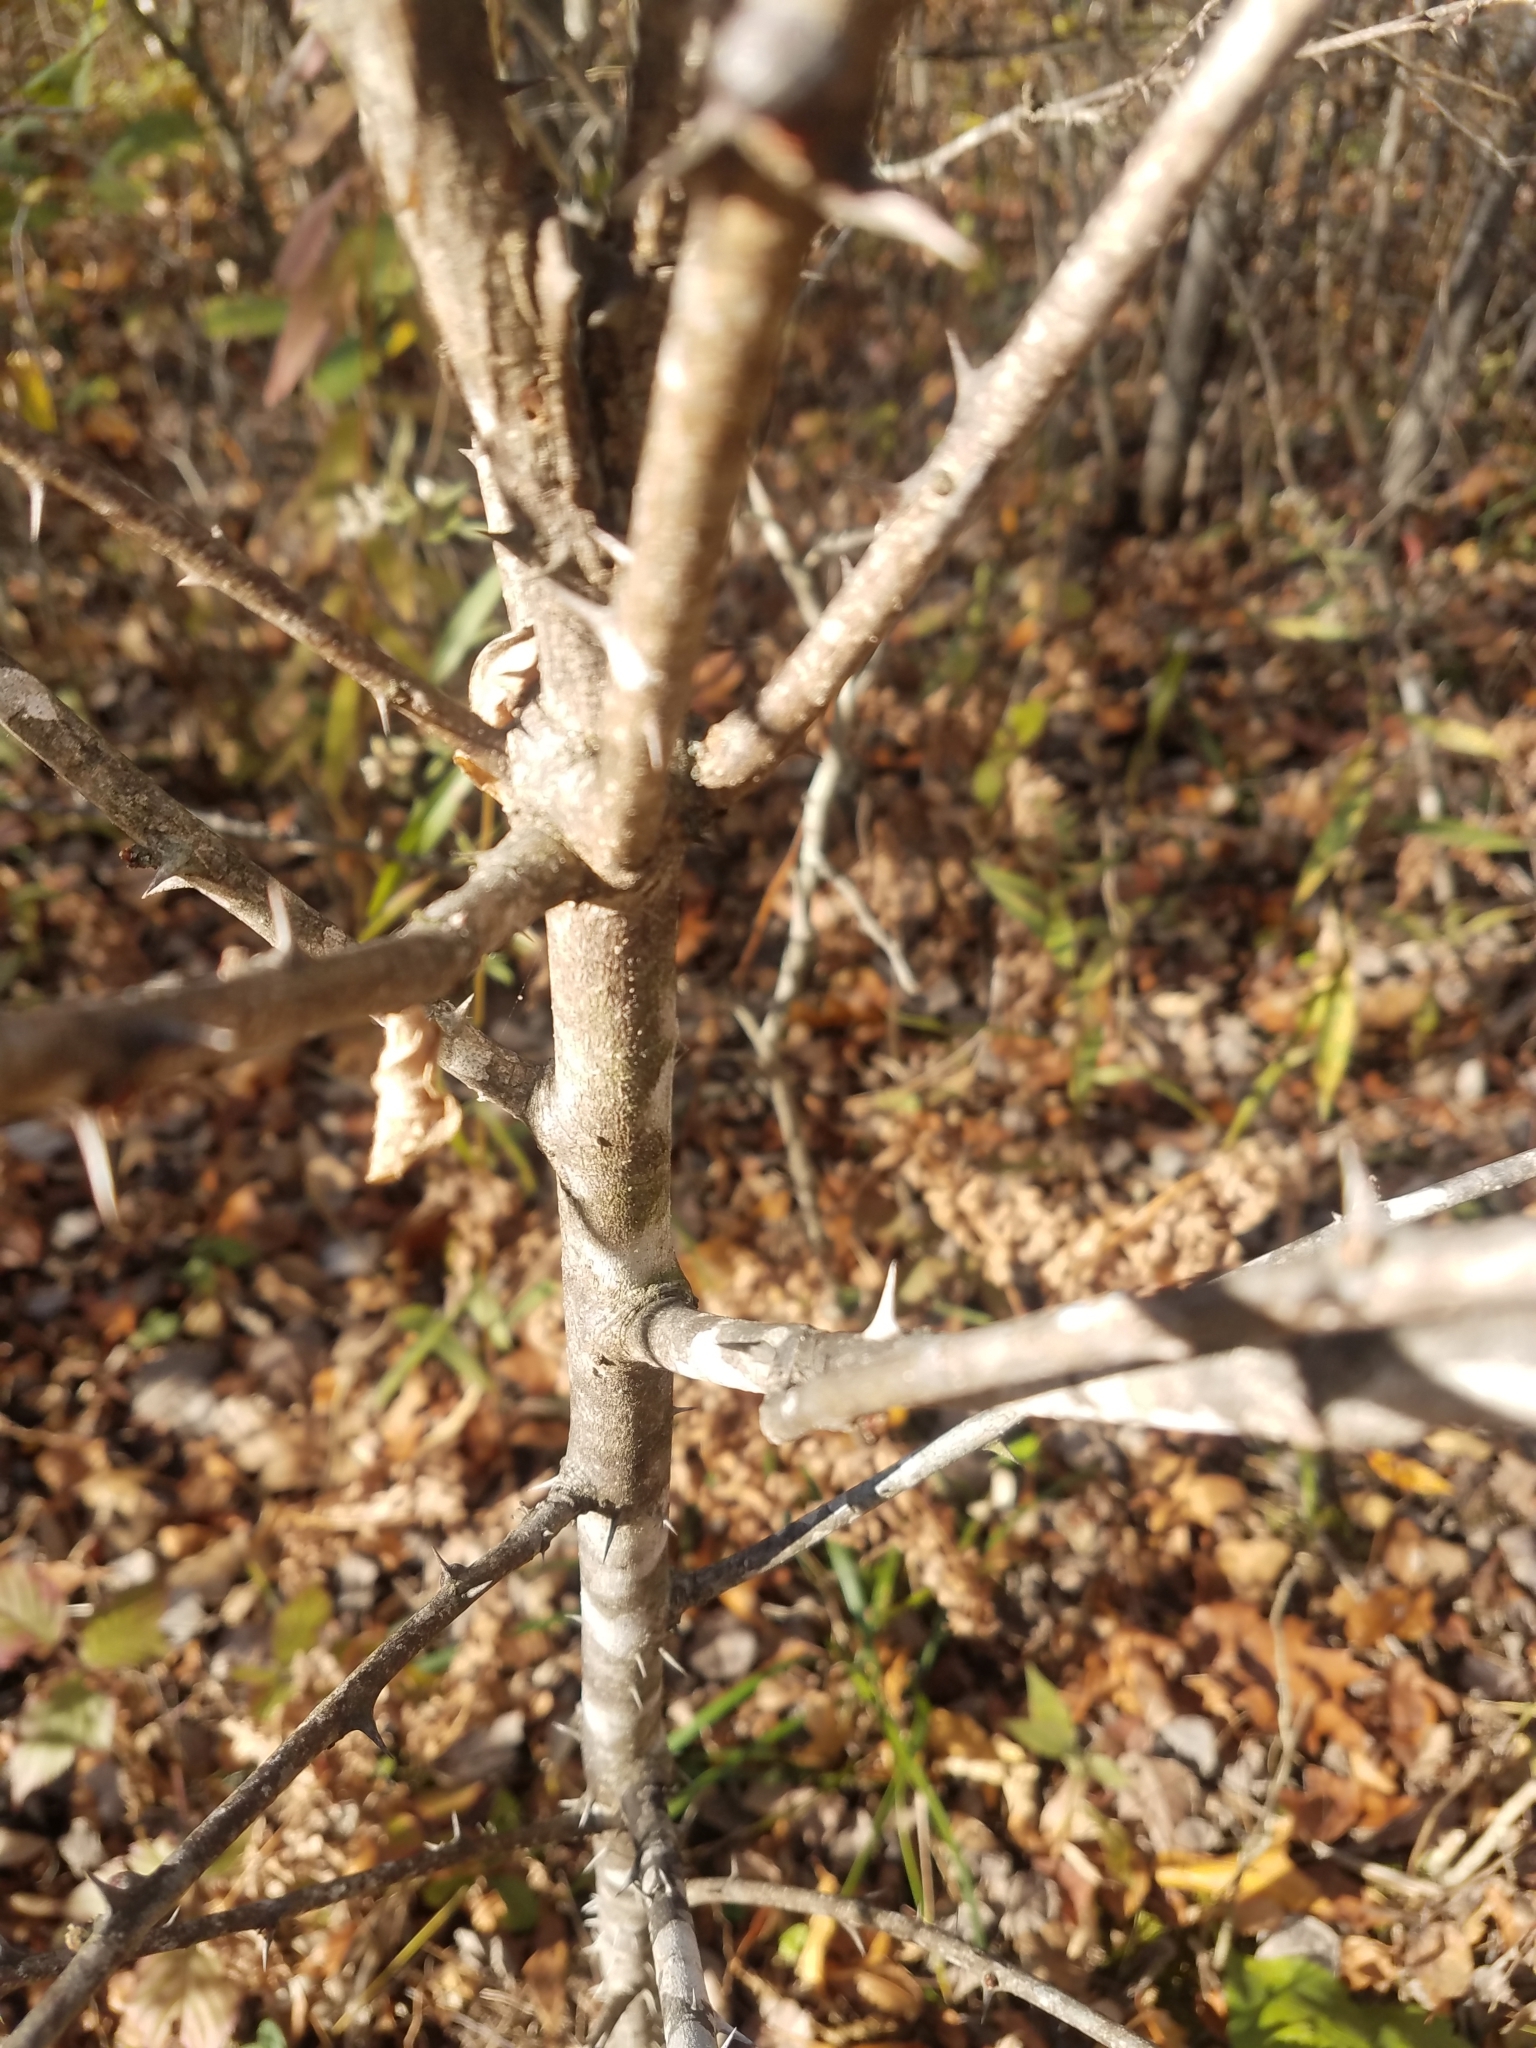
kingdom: Plantae
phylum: Tracheophyta
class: Magnoliopsida
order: Sapindales
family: Rutaceae
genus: Zanthoxylum
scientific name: Zanthoxylum americanum
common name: Northern prickly-ash
